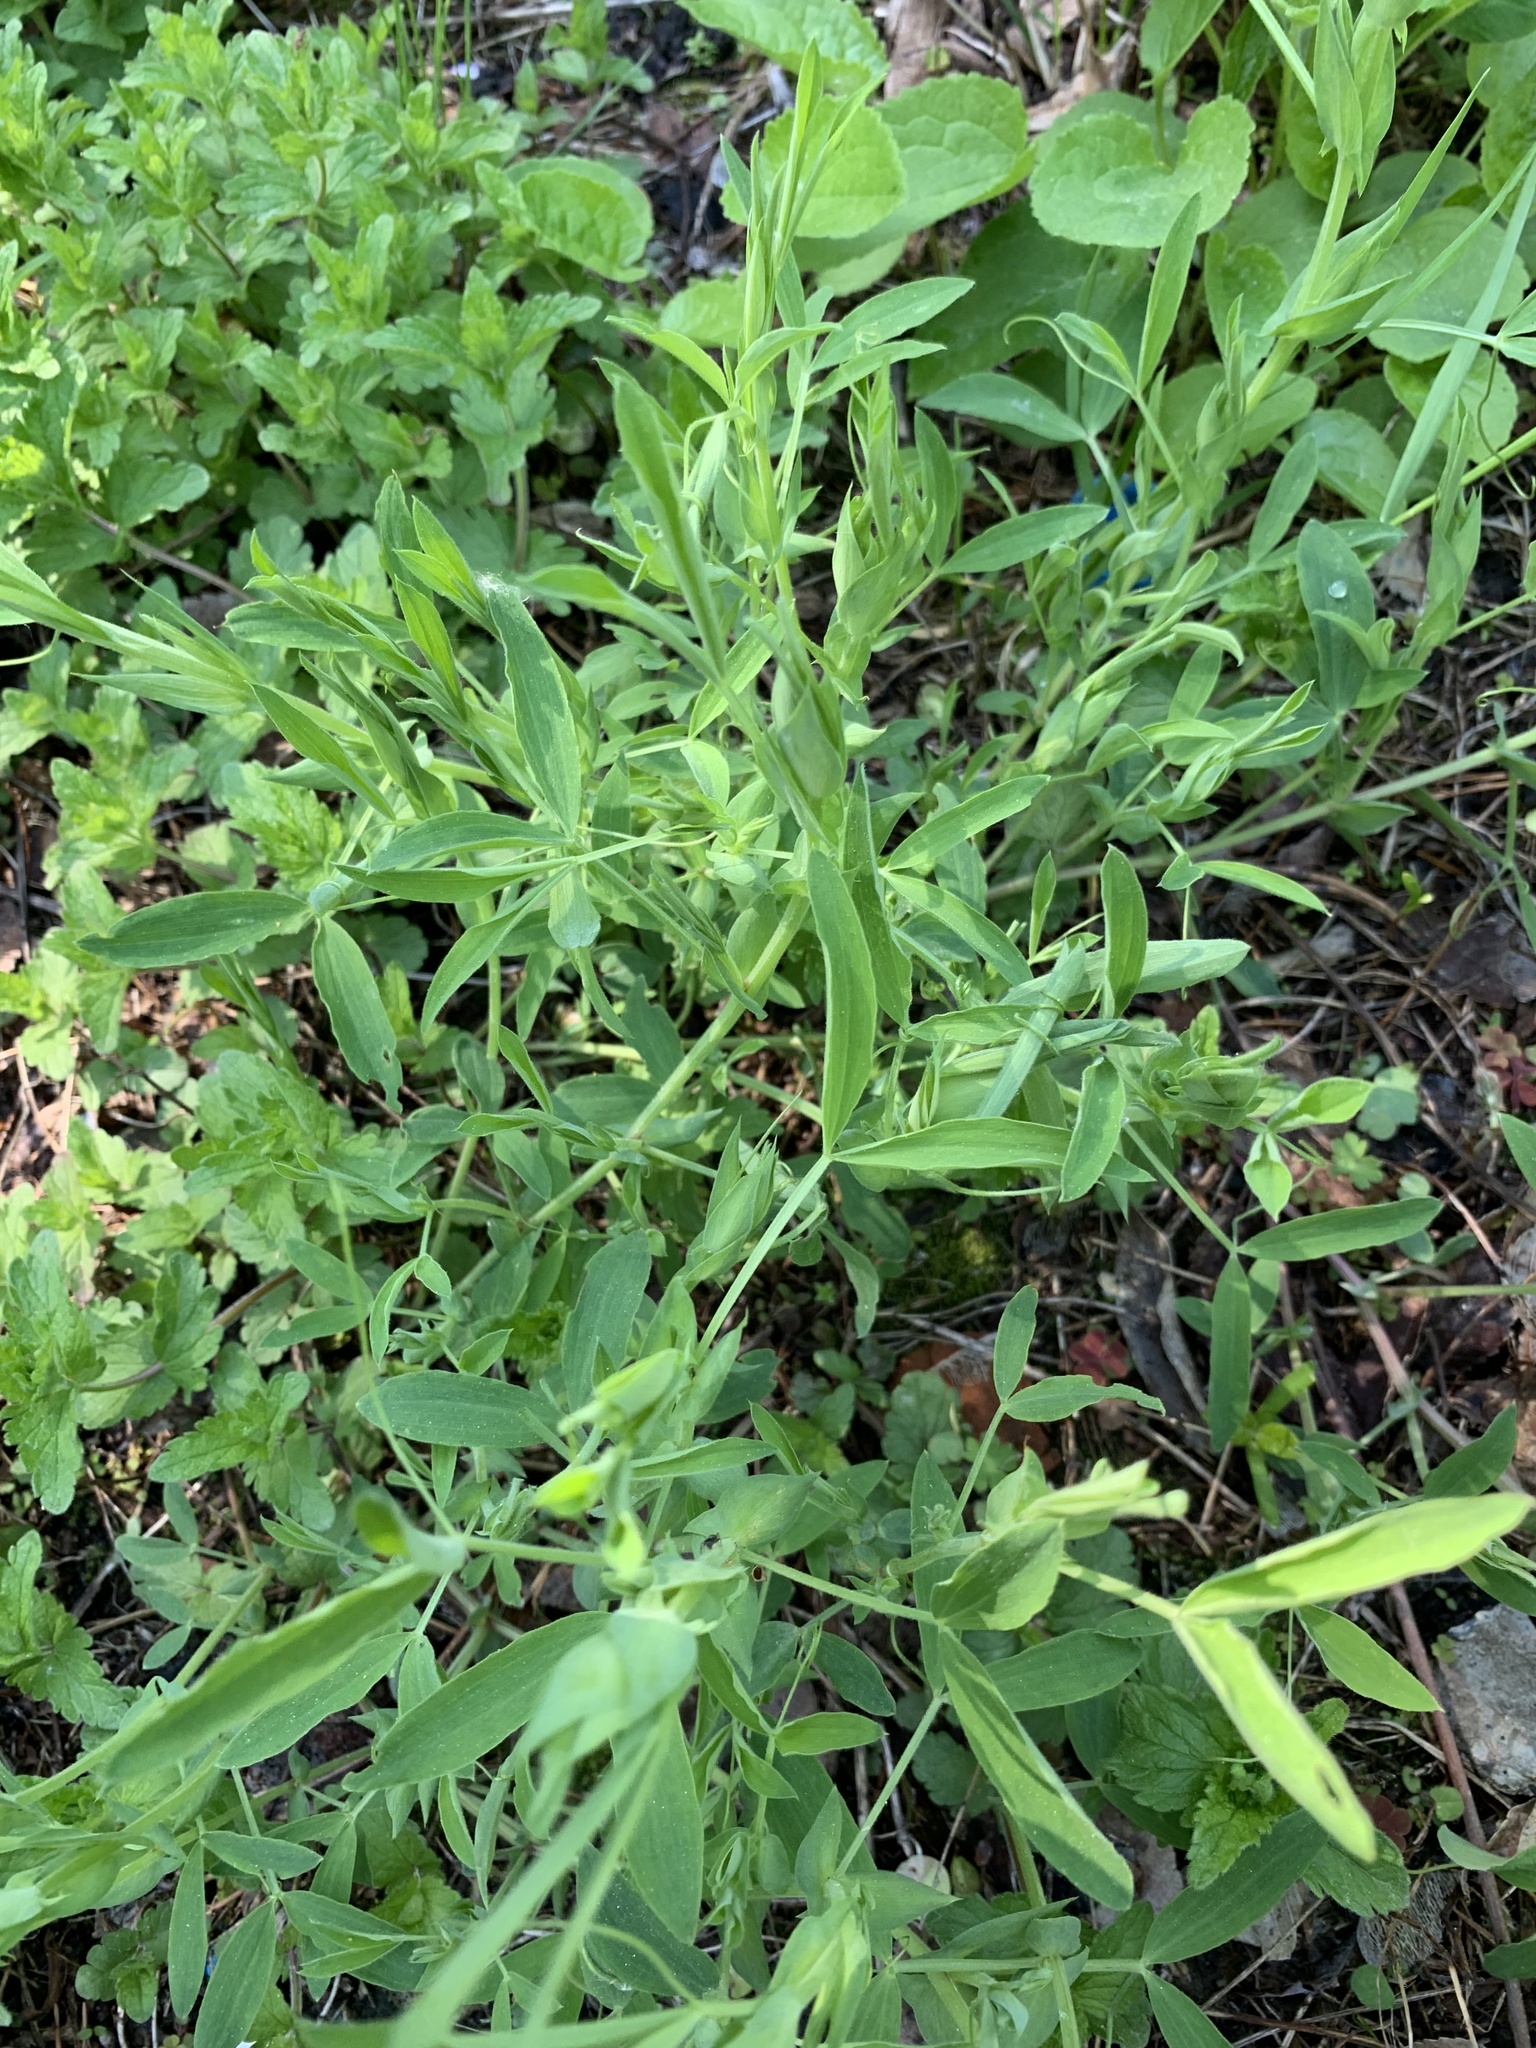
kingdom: Plantae
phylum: Tracheophyta
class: Magnoliopsida
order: Fabales
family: Fabaceae
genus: Lathyrus
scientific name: Lathyrus pratensis
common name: Meadow vetchling
